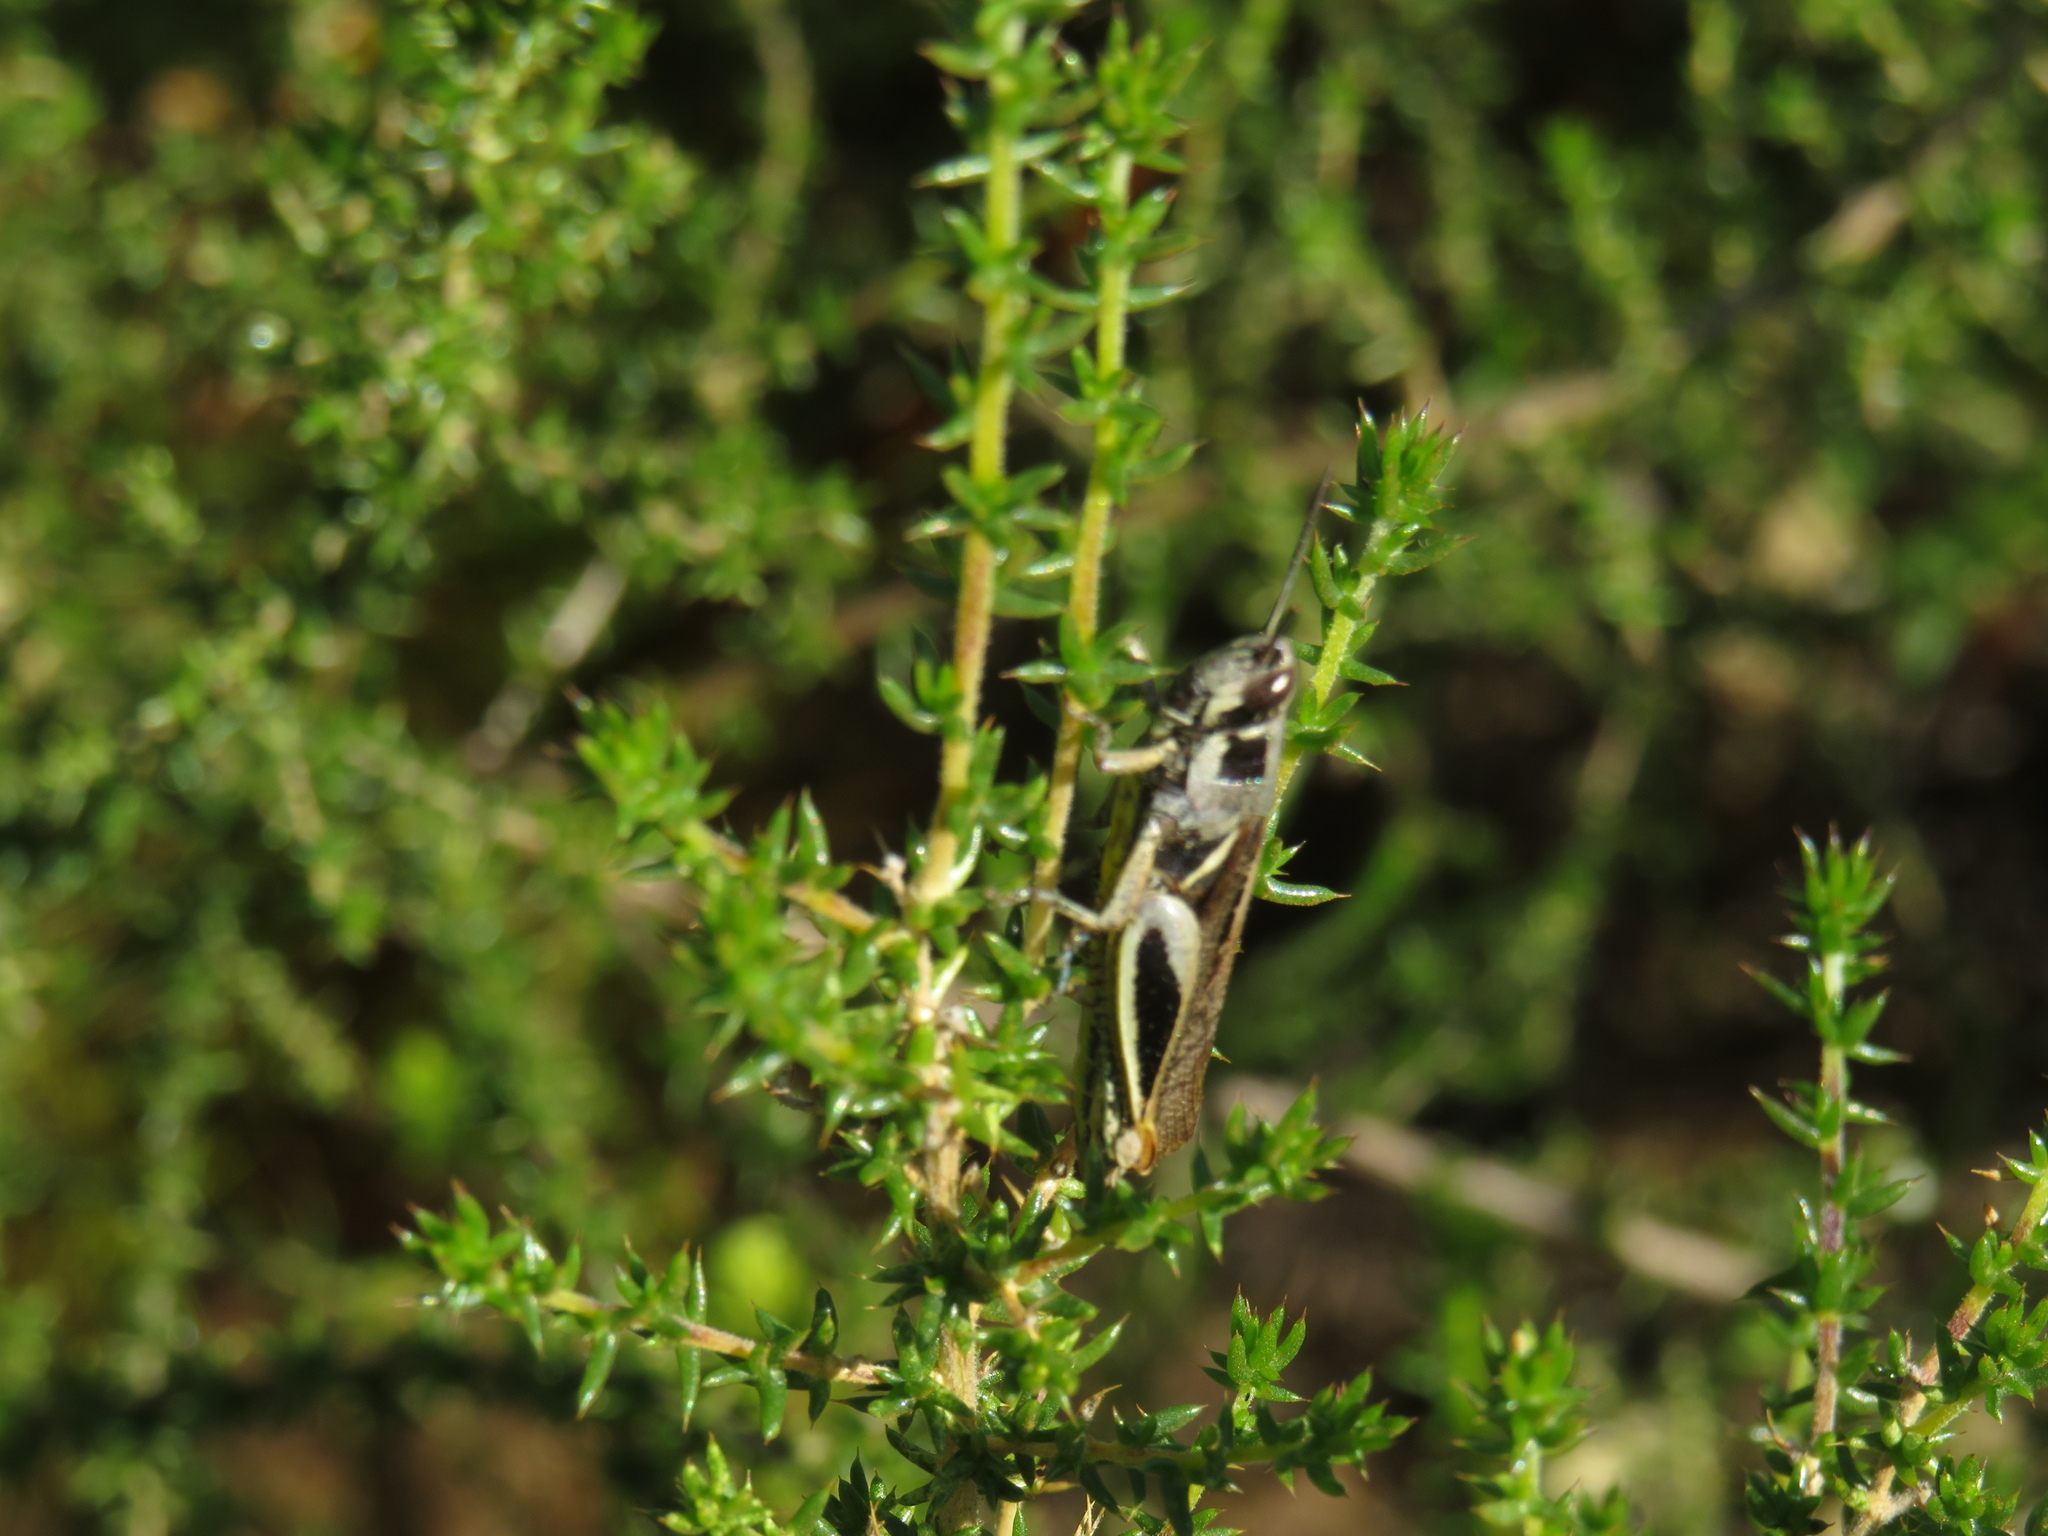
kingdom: Animalia
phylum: Arthropoda
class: Insecta
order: Orthoptera
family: Acrididae
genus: Vitticatantops
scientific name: Vitticatantops humeralis
